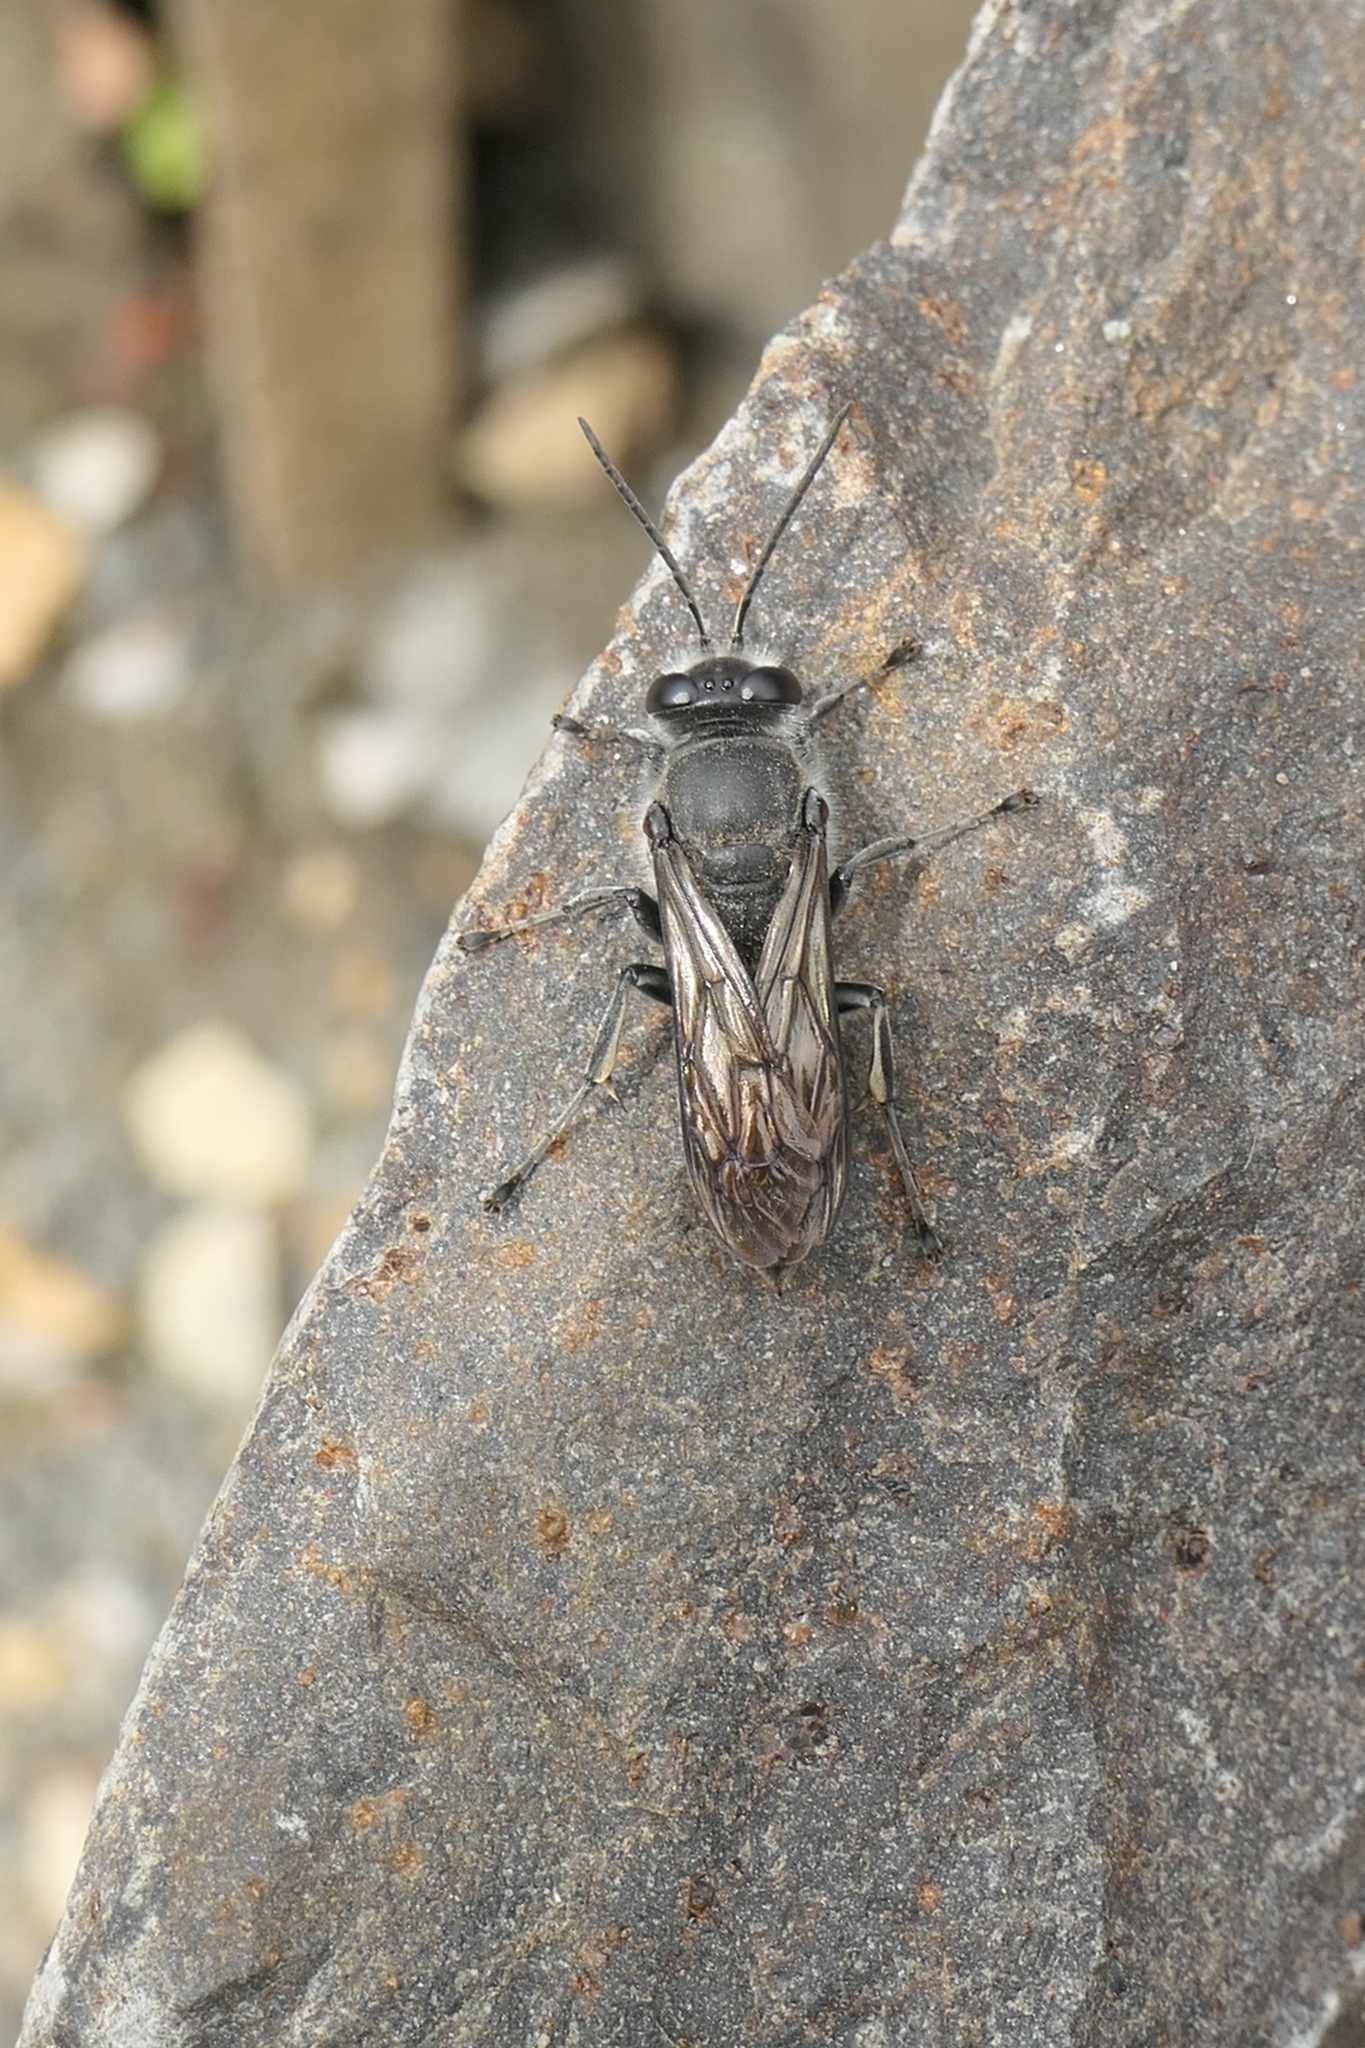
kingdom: Animalia
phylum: Arthropoda
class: Insecta
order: Hymenoptera
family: Crabronidae
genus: Pison
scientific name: Pison spinolae
